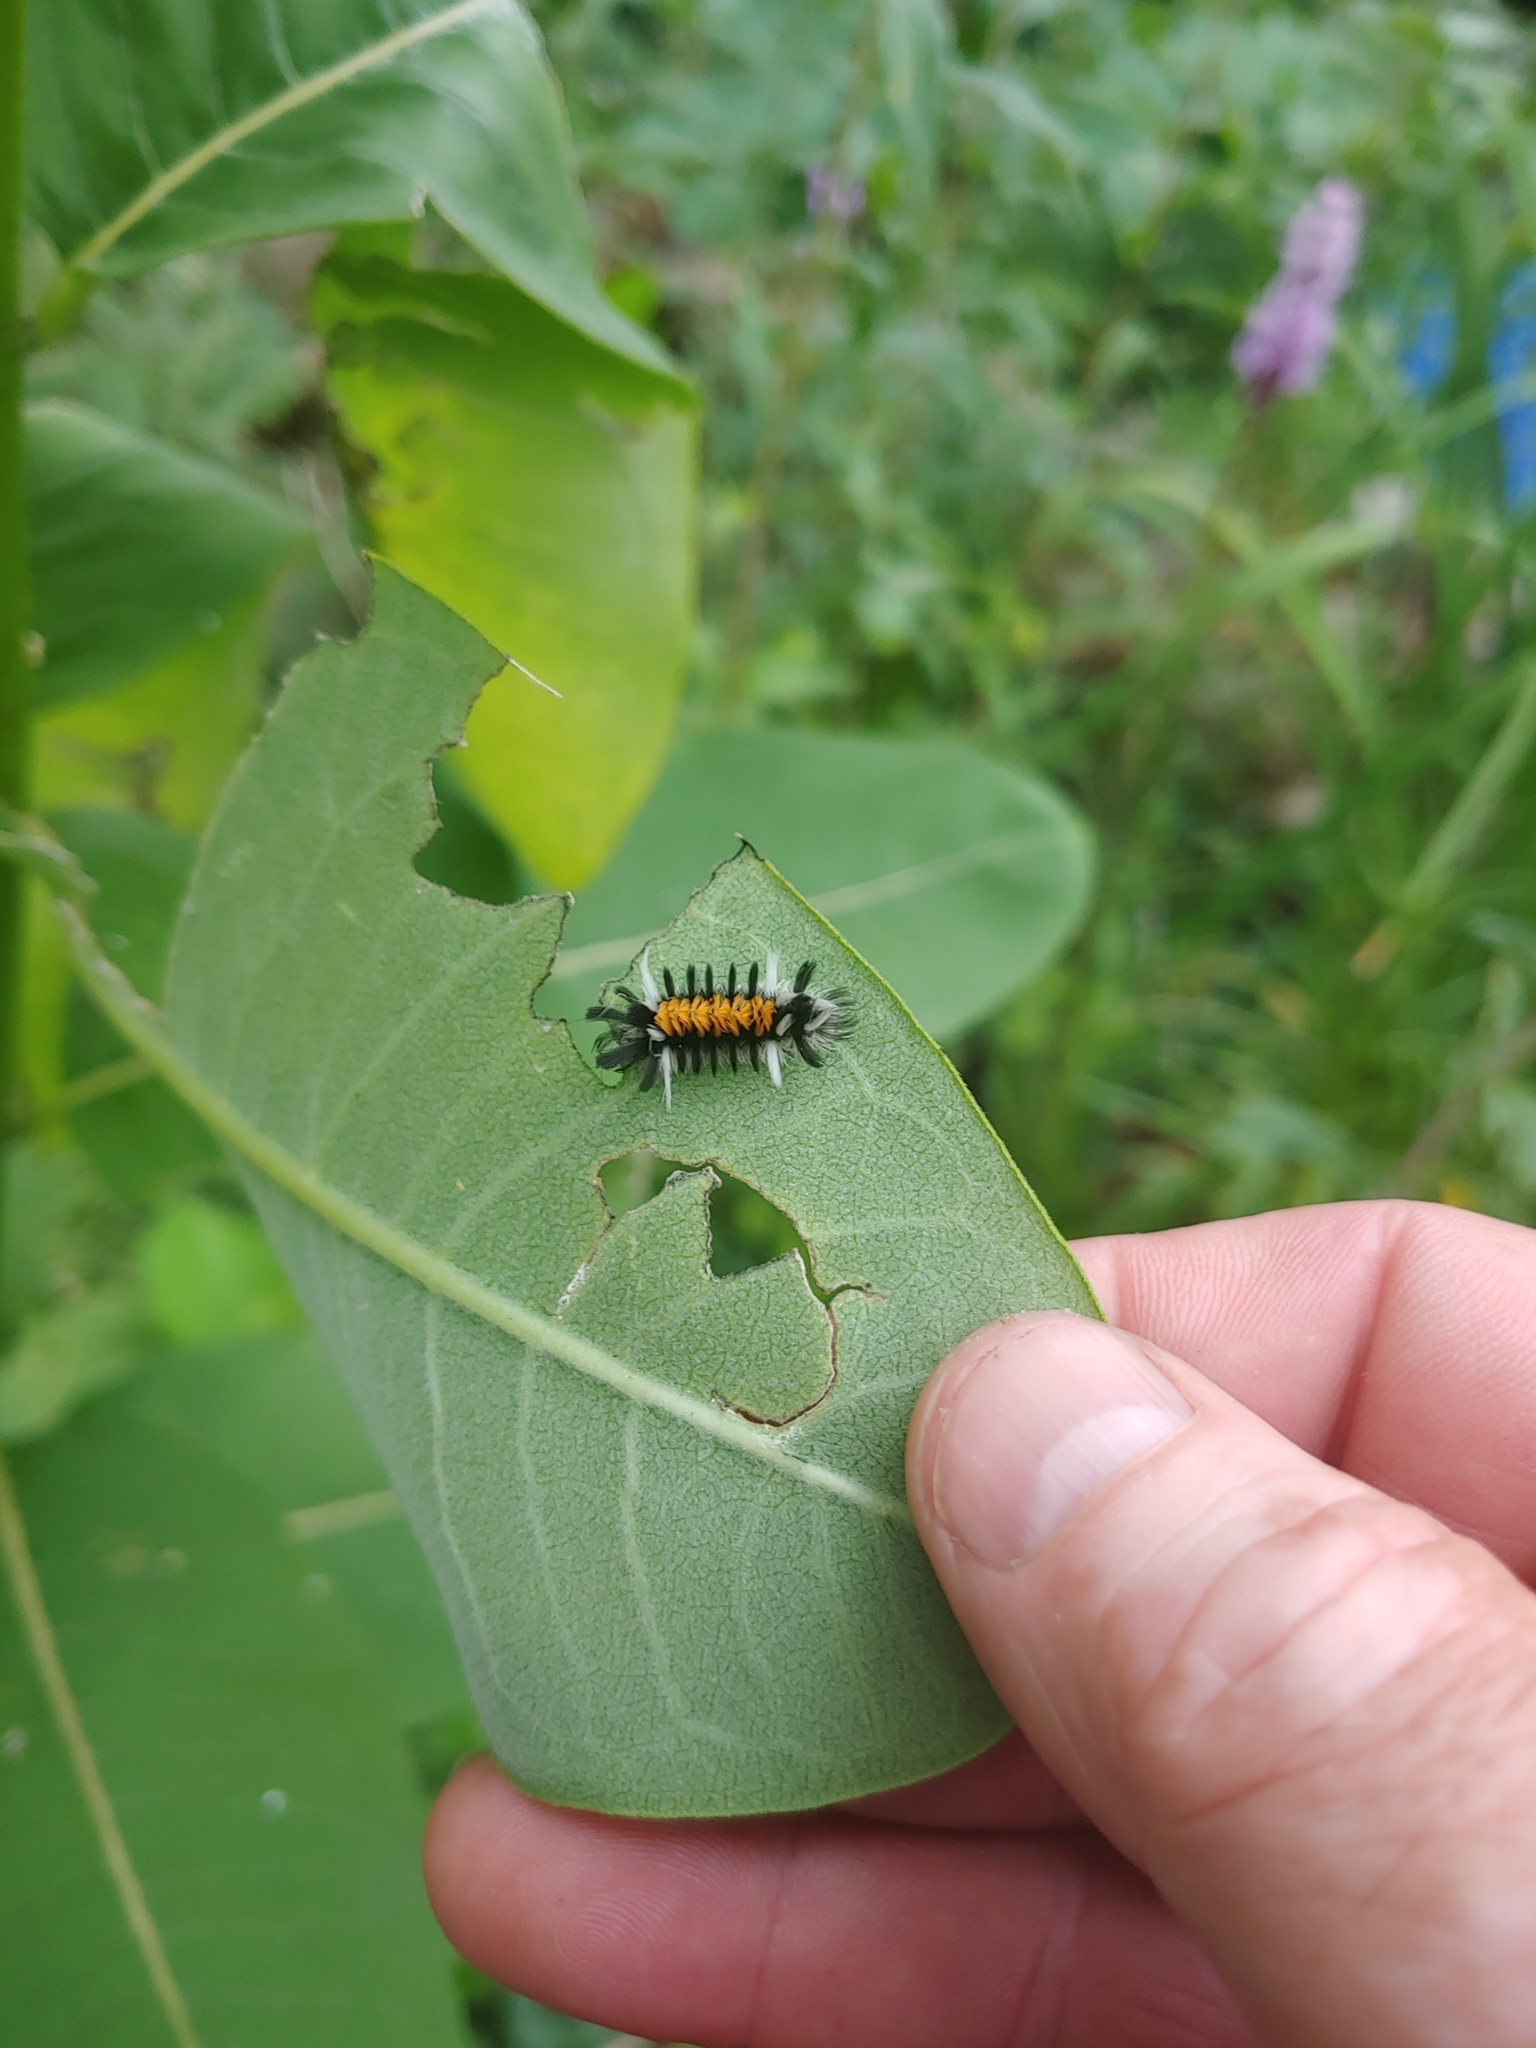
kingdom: Animalia
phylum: Arthropoda
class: Insecta
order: Lepidoptera
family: Erebidae
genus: Euchaetes
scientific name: Euchaetes egle
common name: Milkweed tussock moth
